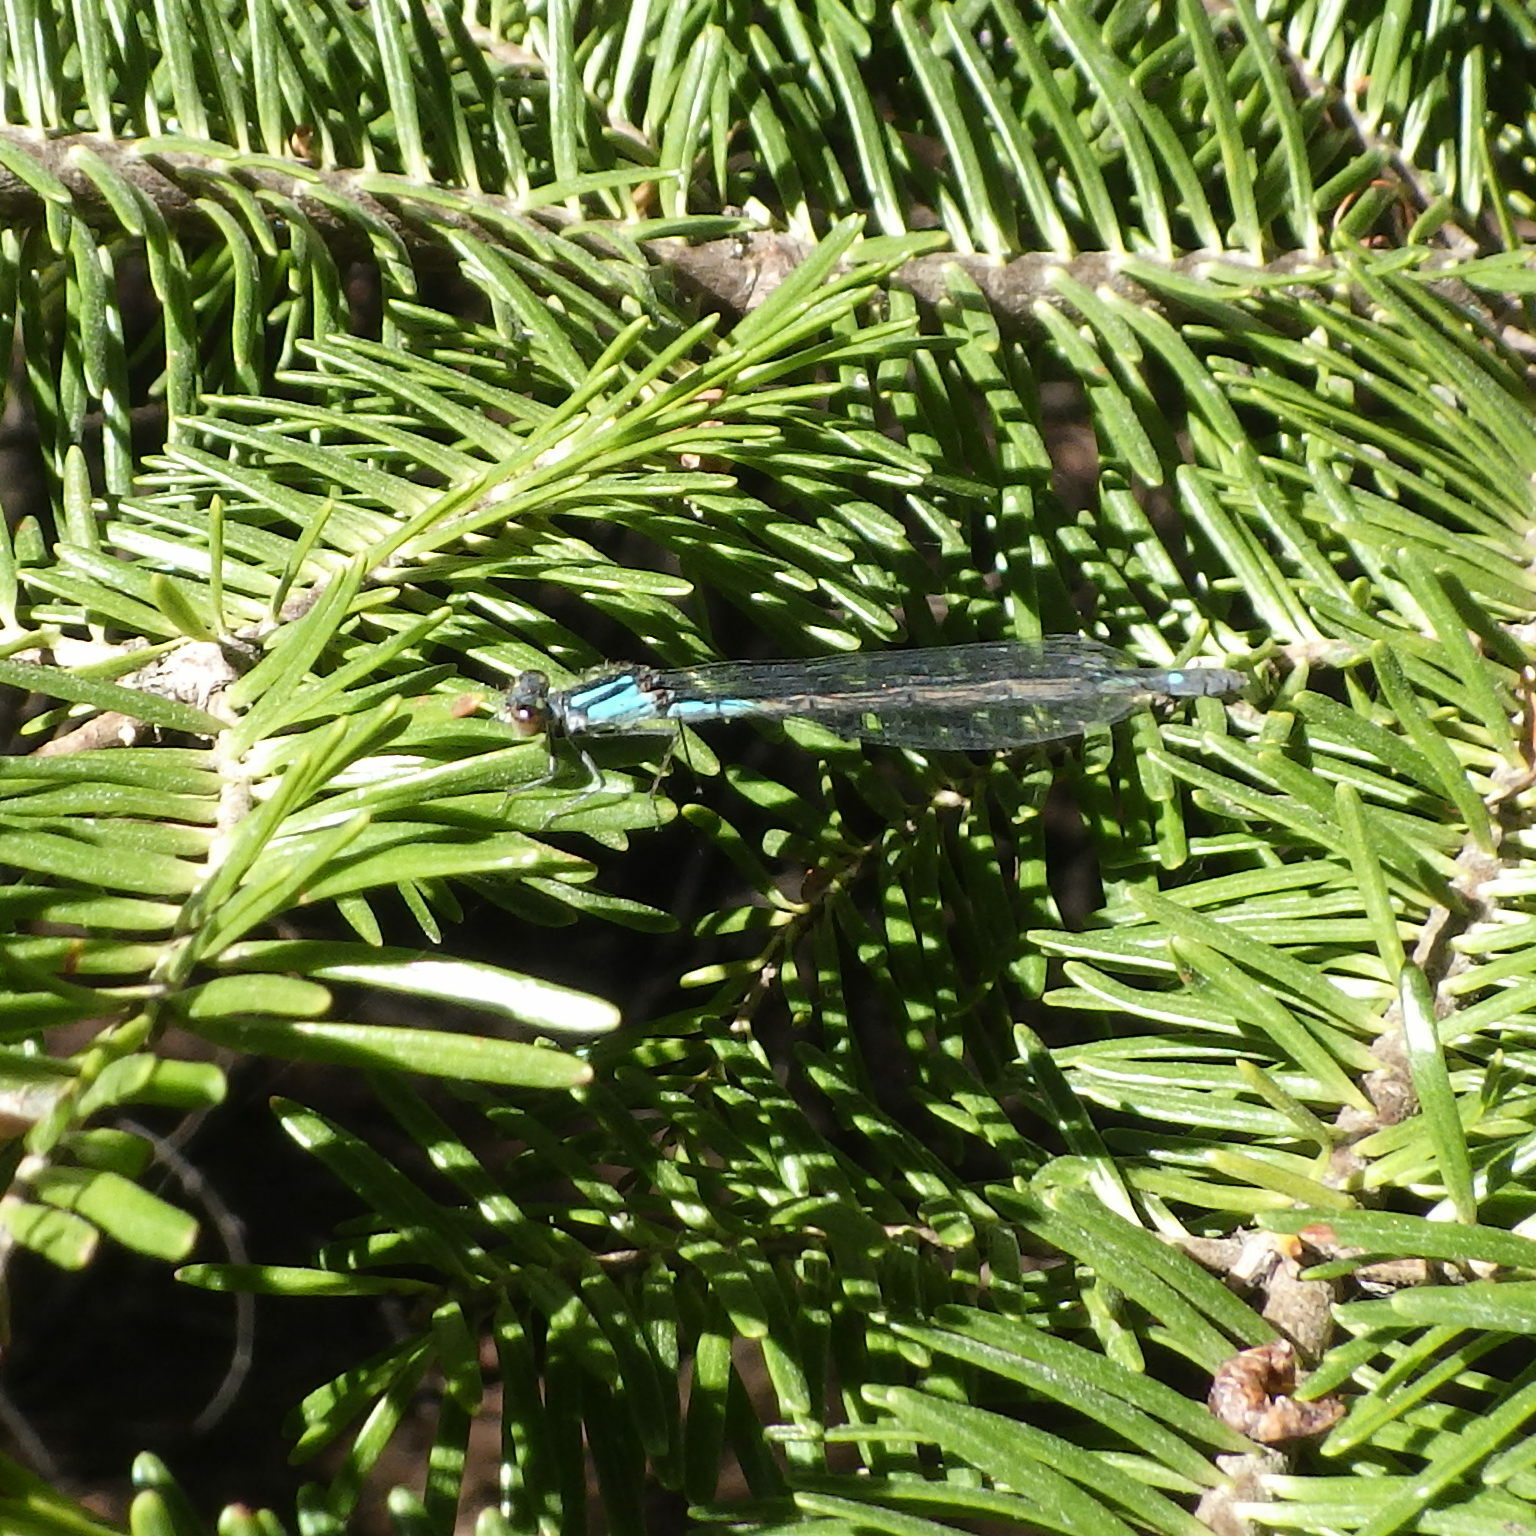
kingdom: Animalia
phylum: Arthropoda
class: Insecta
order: Odonata
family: Coenagrionidae
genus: Enallagma
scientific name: Enallagma aspersum
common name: Azure bluet
